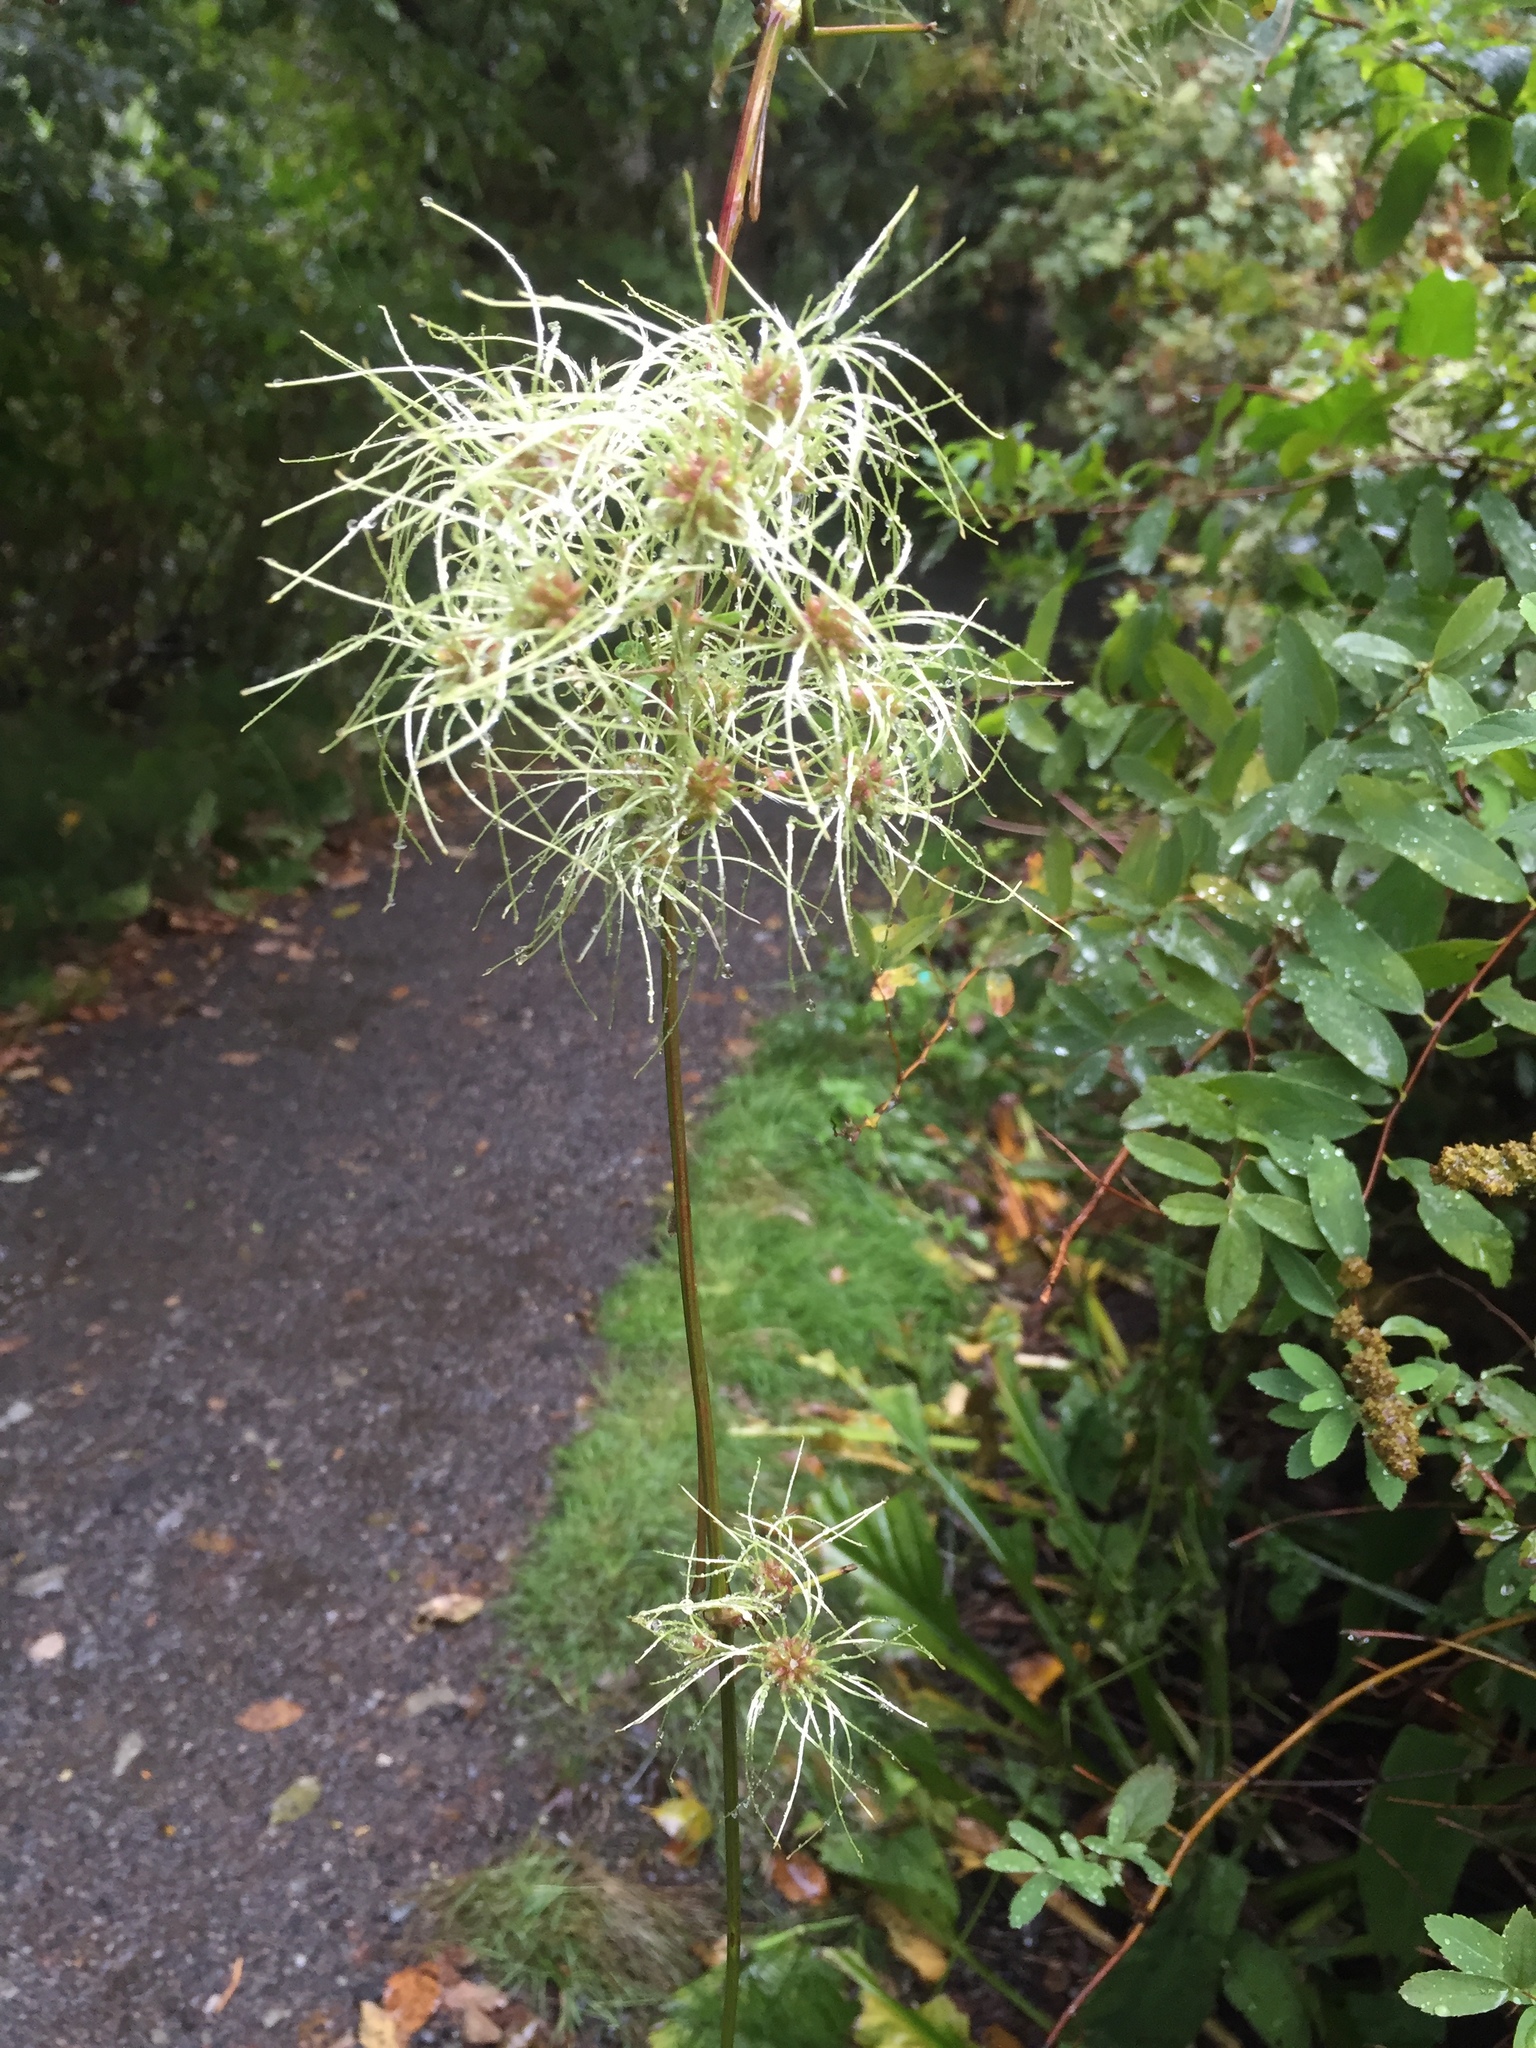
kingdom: Plantae
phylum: Tracheophyta
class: Magnoliopsida
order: Ranunculales
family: Ranunculaceae
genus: Clematis
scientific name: Clematis vitalba
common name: Evergreen clematis
